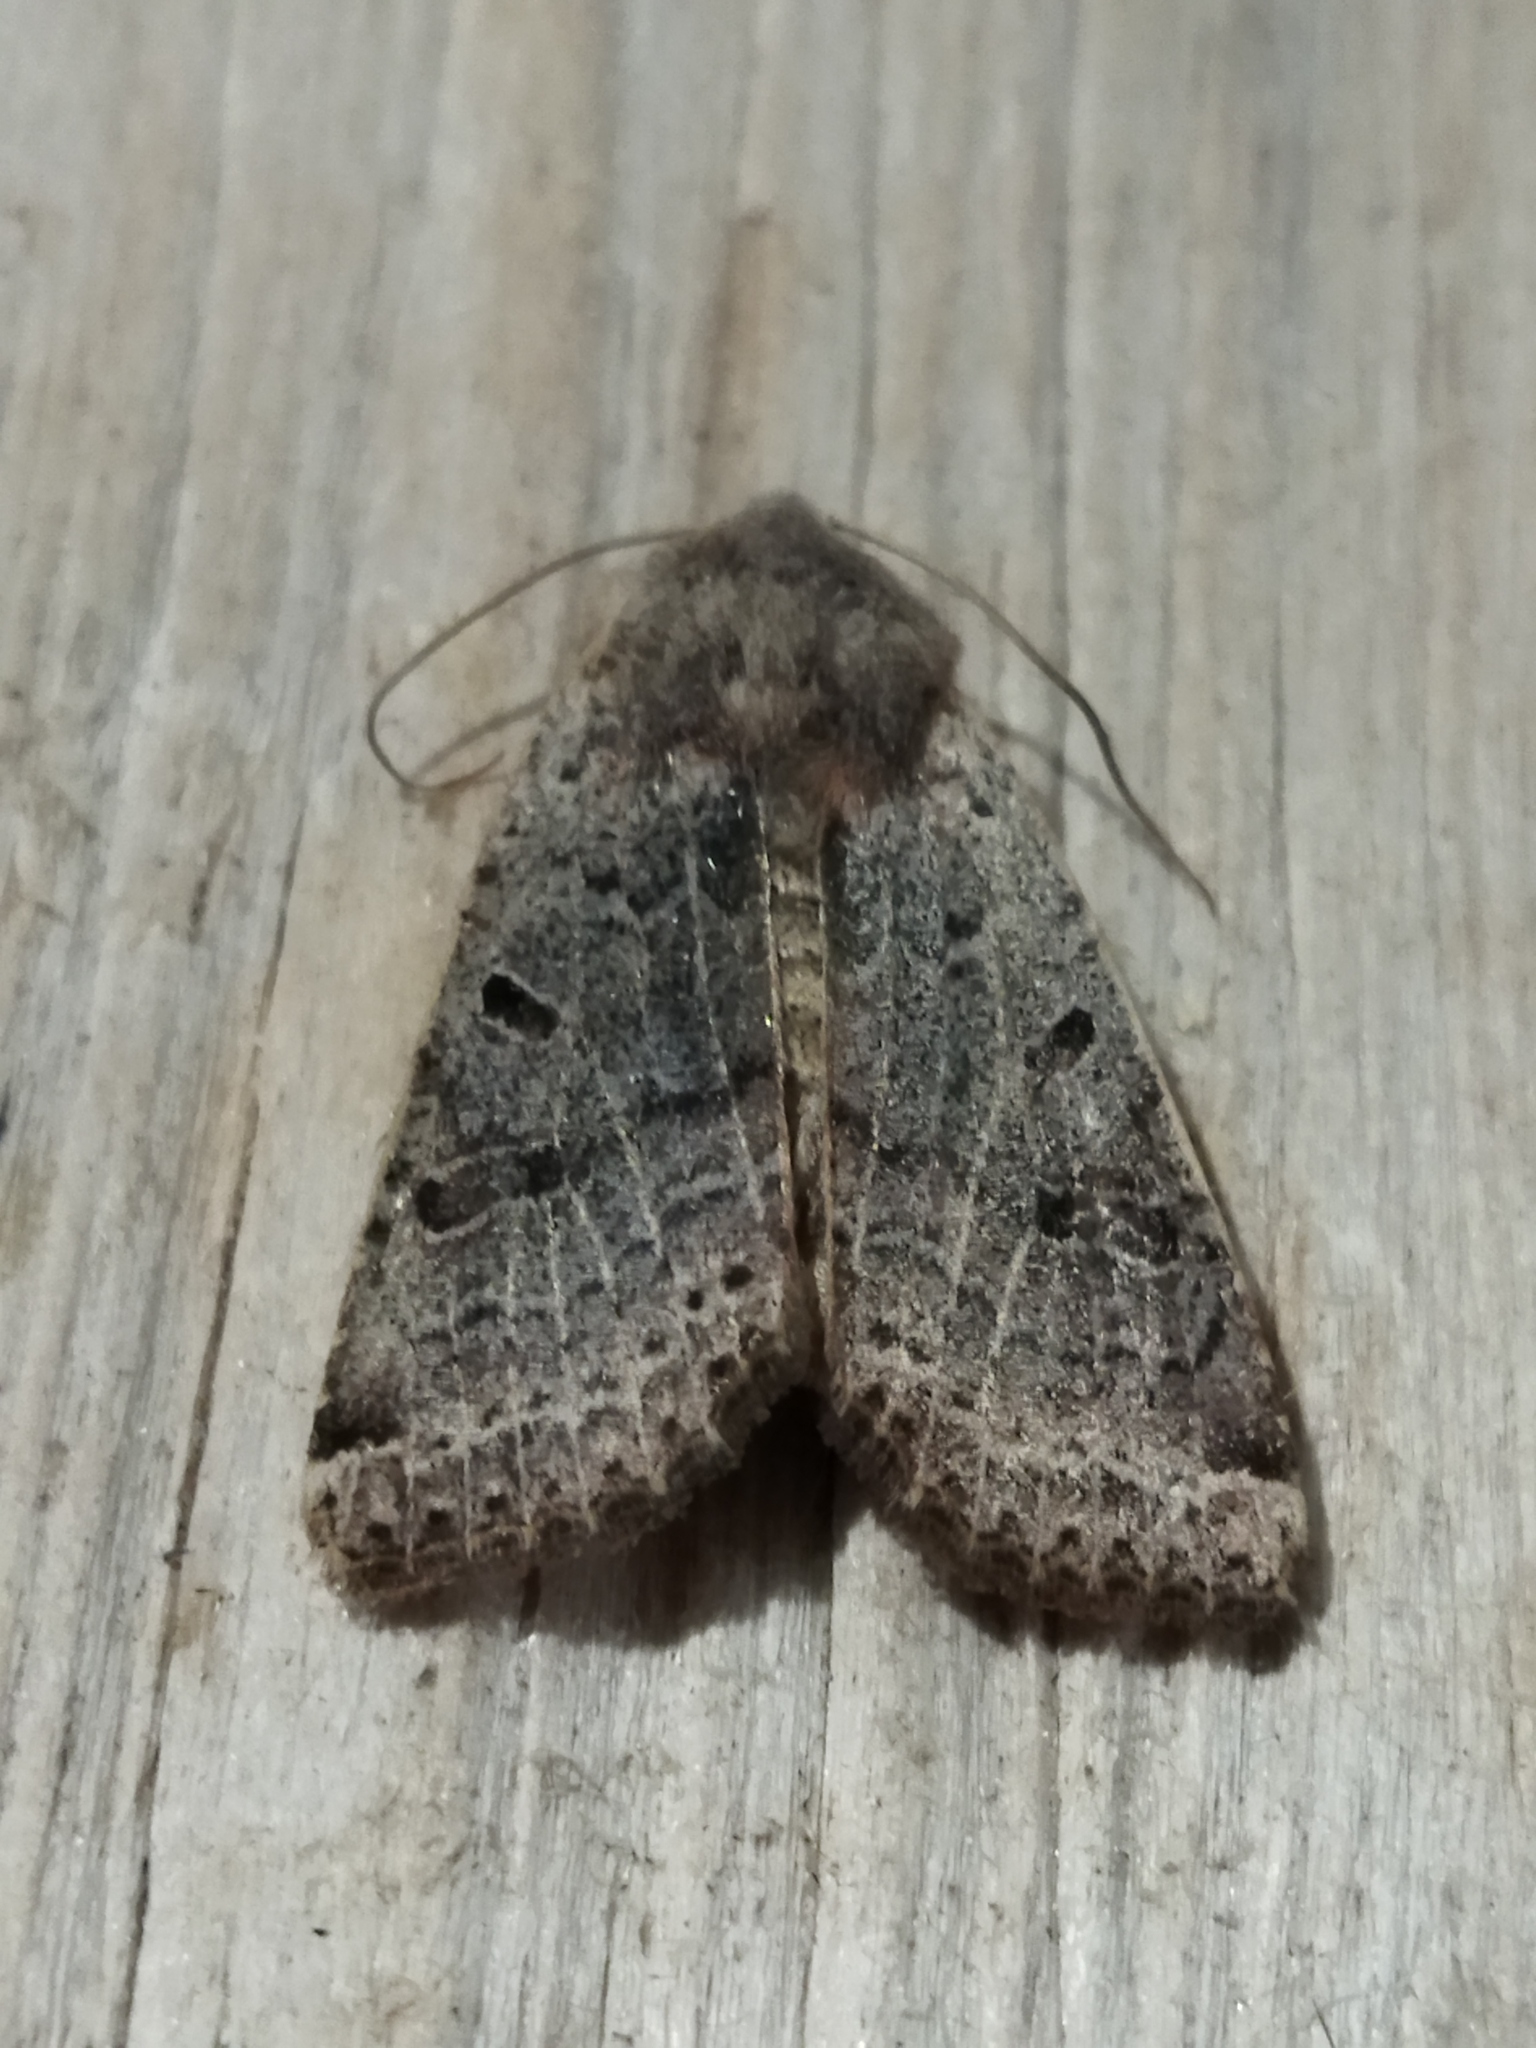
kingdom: Animalia
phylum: Arthropoda
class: Insecta
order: Lepidoptera
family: Noctuidae
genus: Agrochola
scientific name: Agrochola lychnidis
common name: Beaded chestnut
